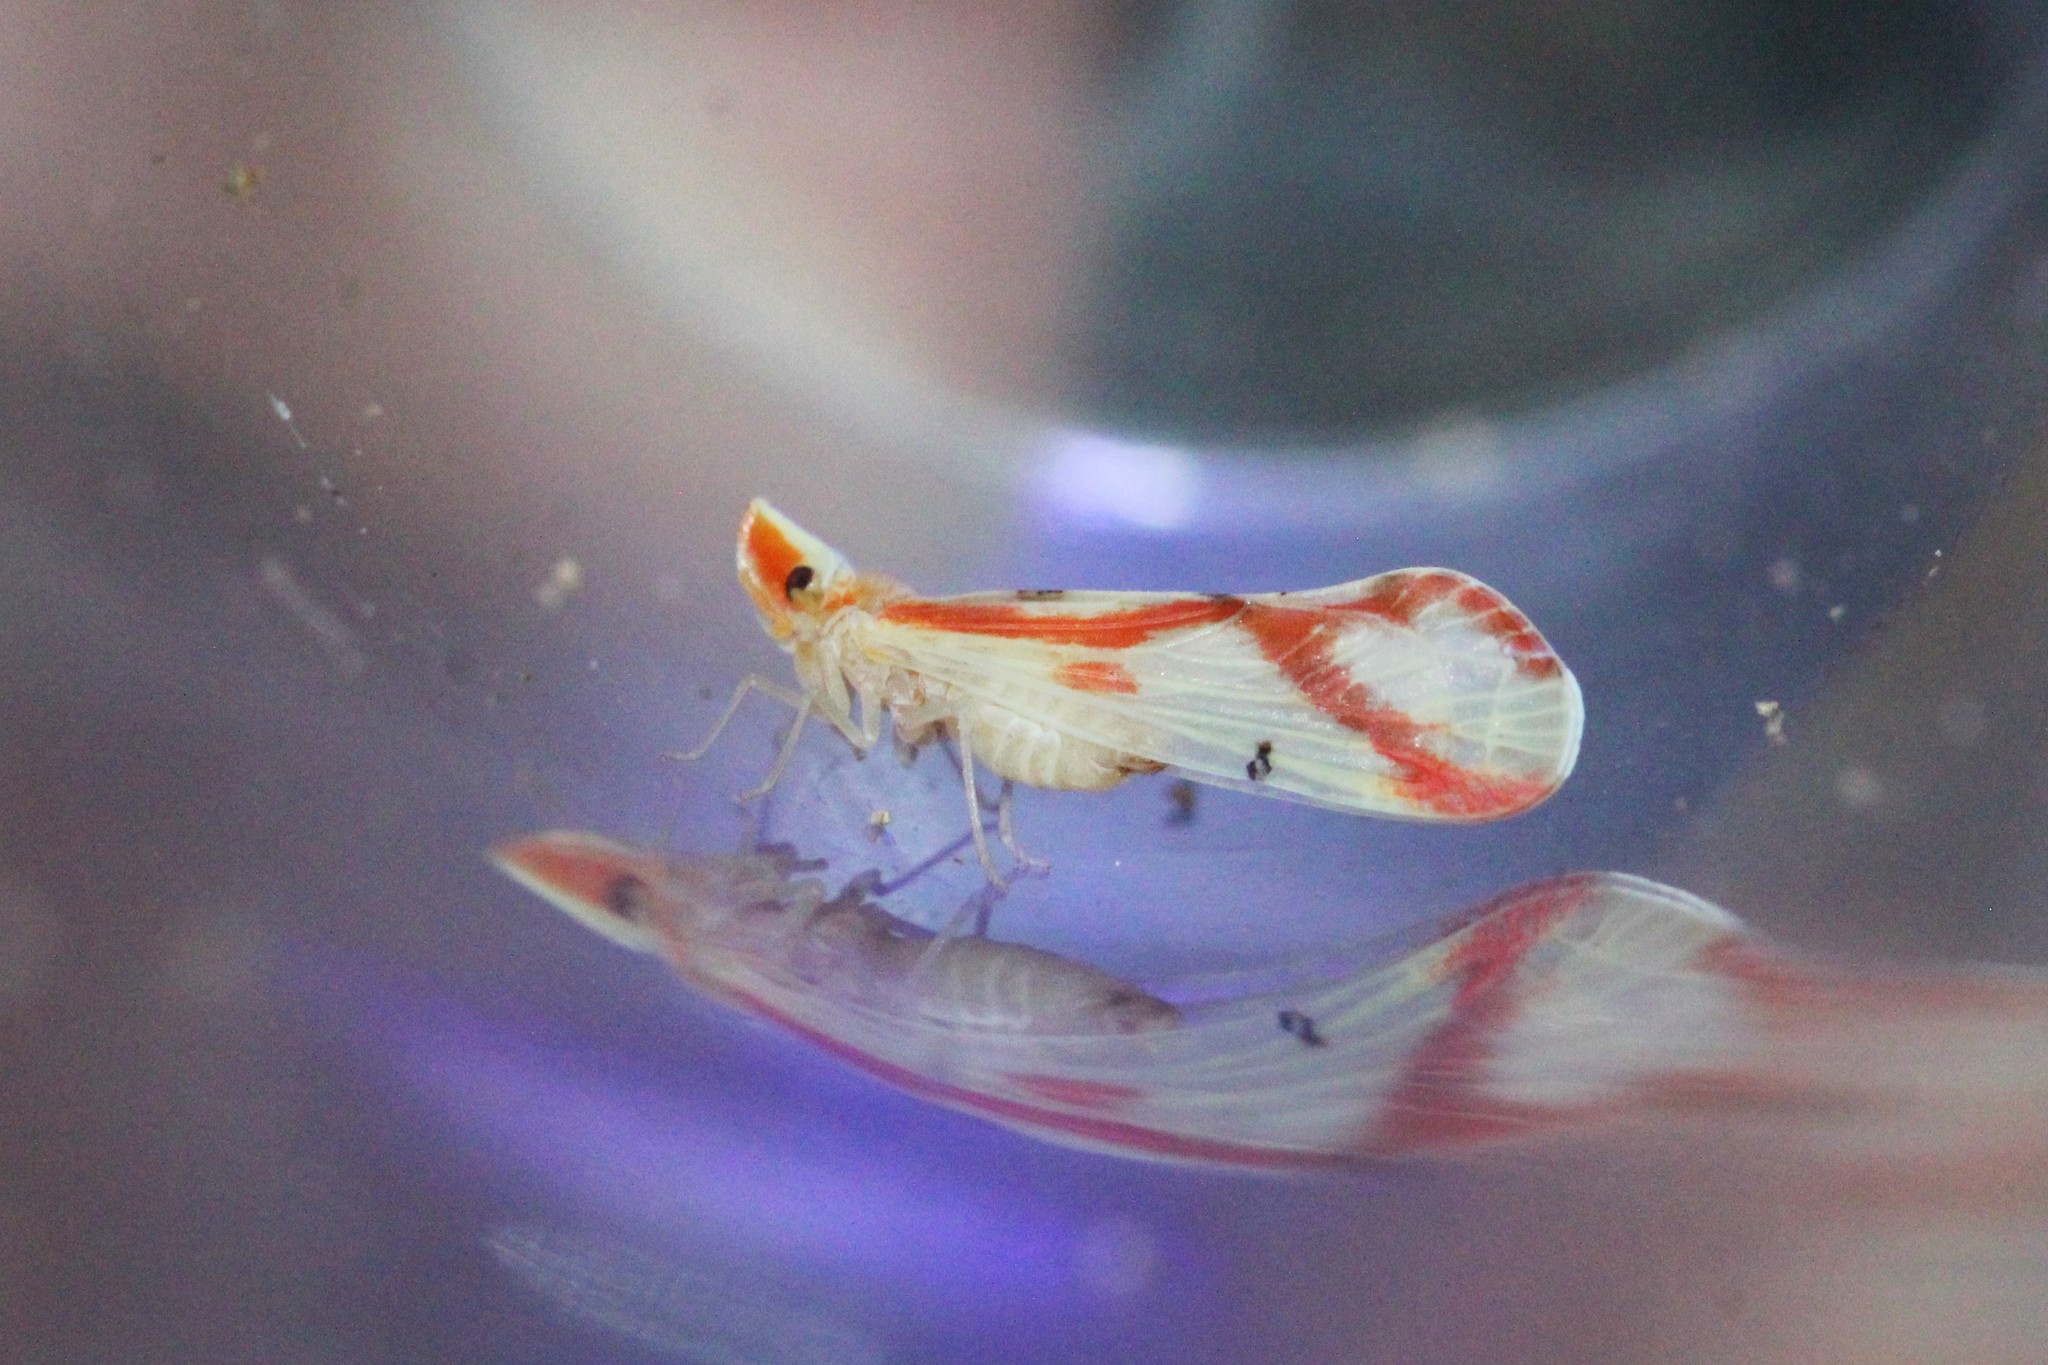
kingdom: Animalia
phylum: Arthropoda
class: Insecta
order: Hemiptera
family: Derbidae
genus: Otiocerus
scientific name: Otiocerus coquebertii
